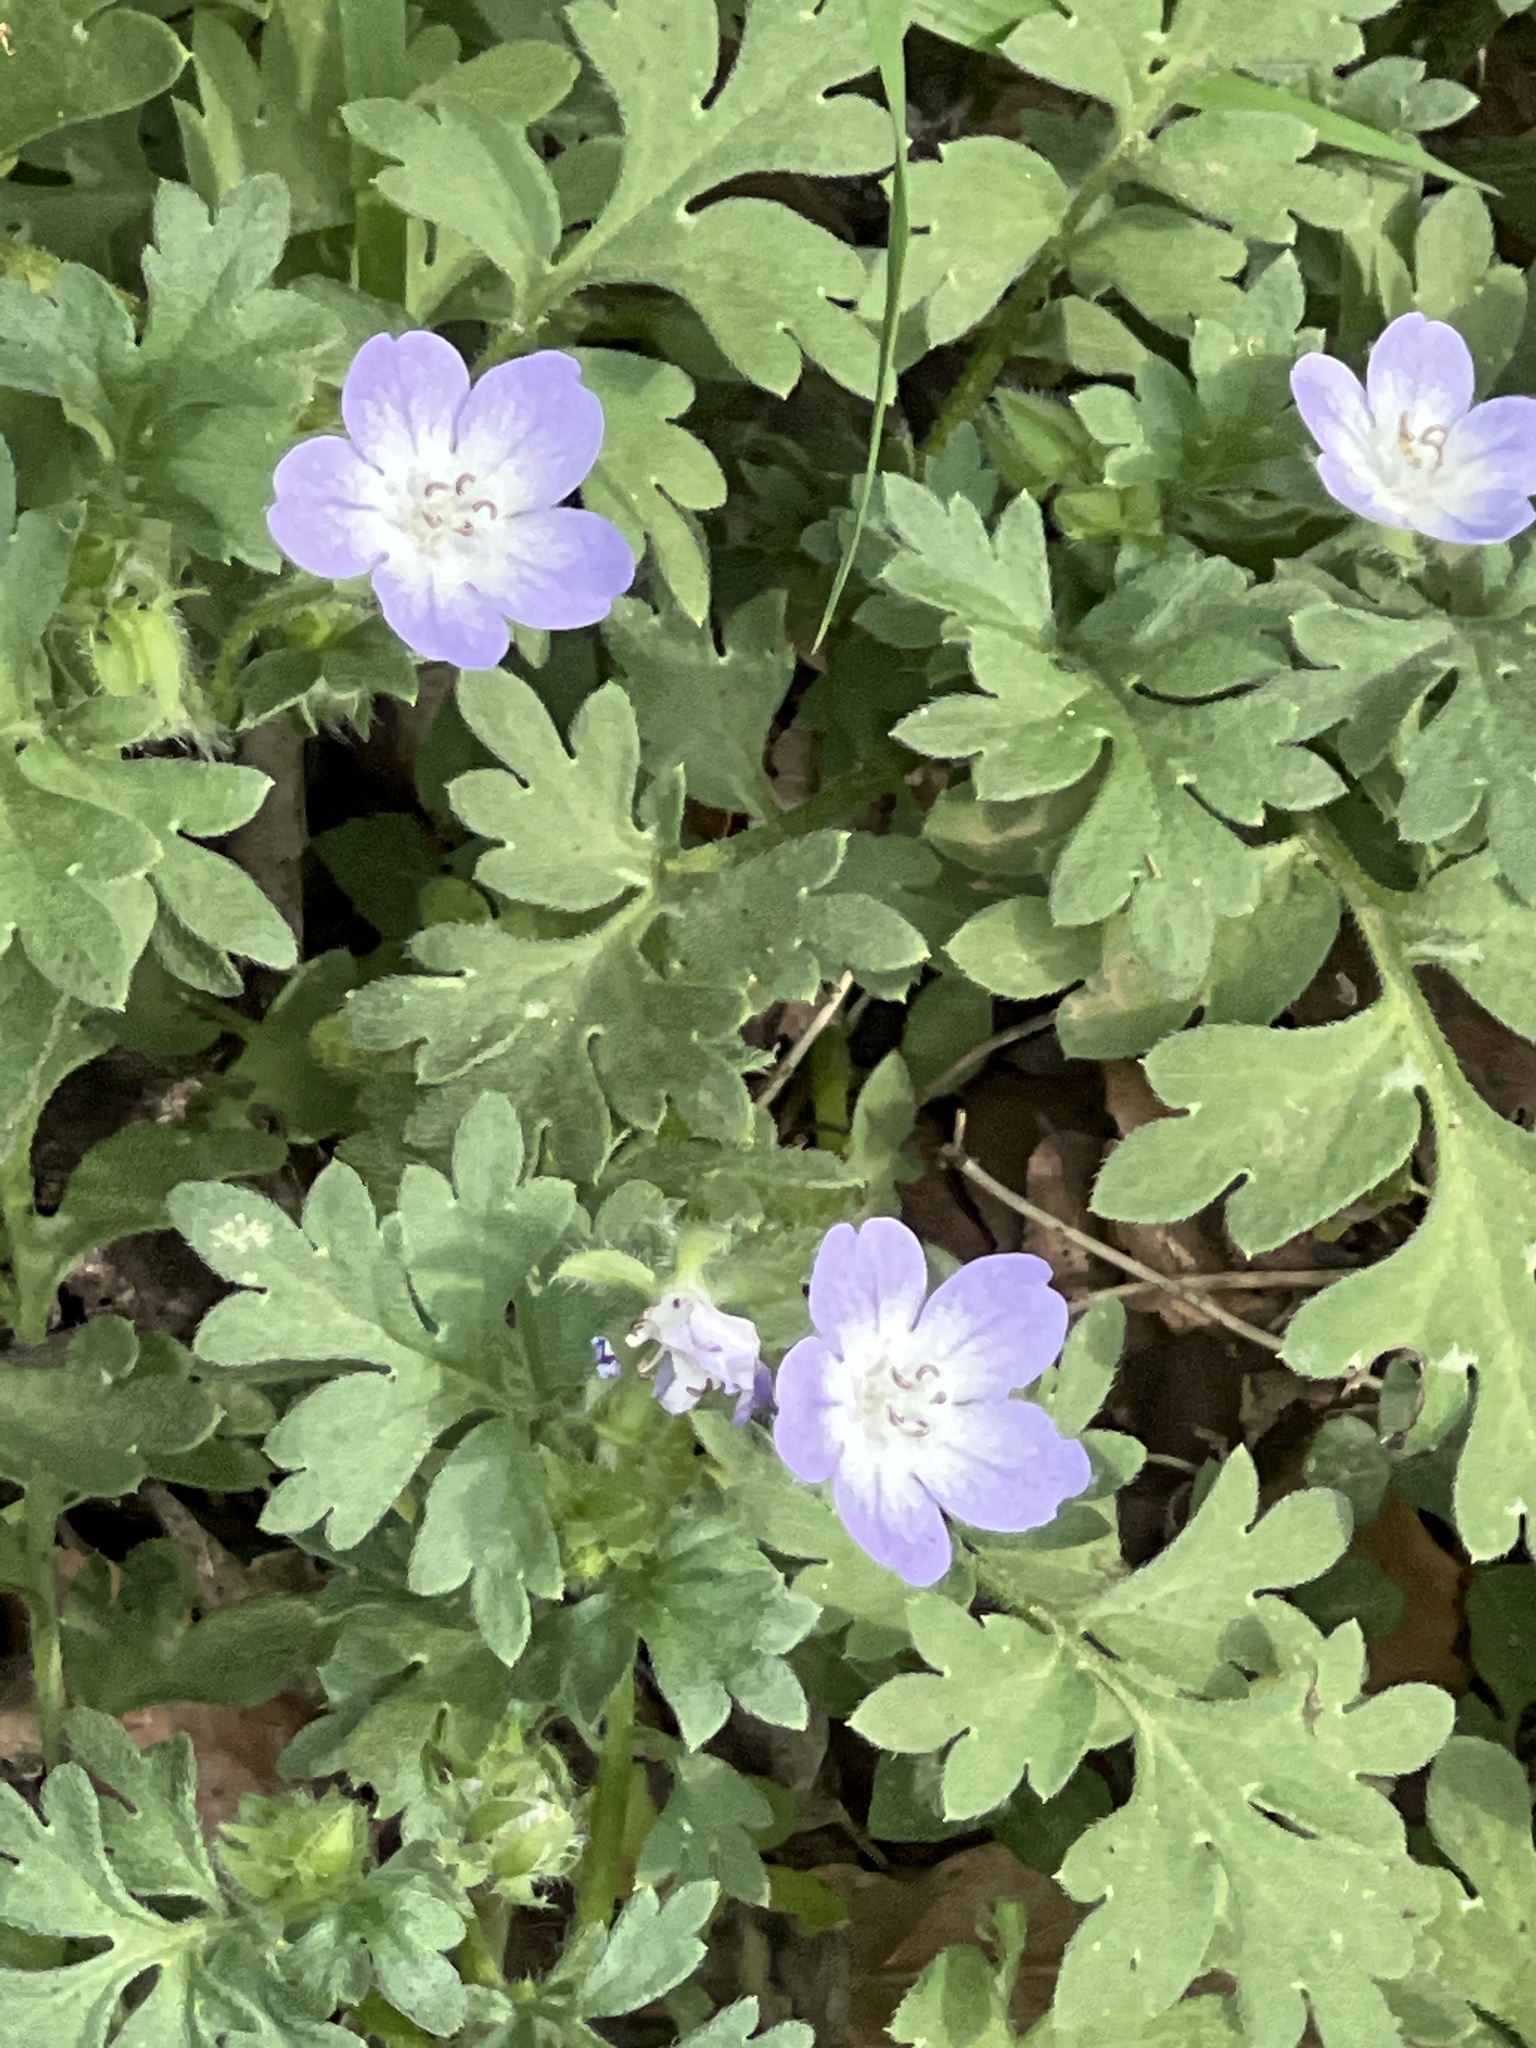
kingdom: Plantae
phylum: Tracheophyta
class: Magnoliopsida
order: Boraginales
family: Hydrophyllaceae
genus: Nemophila
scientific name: Nemophila phacelioides
